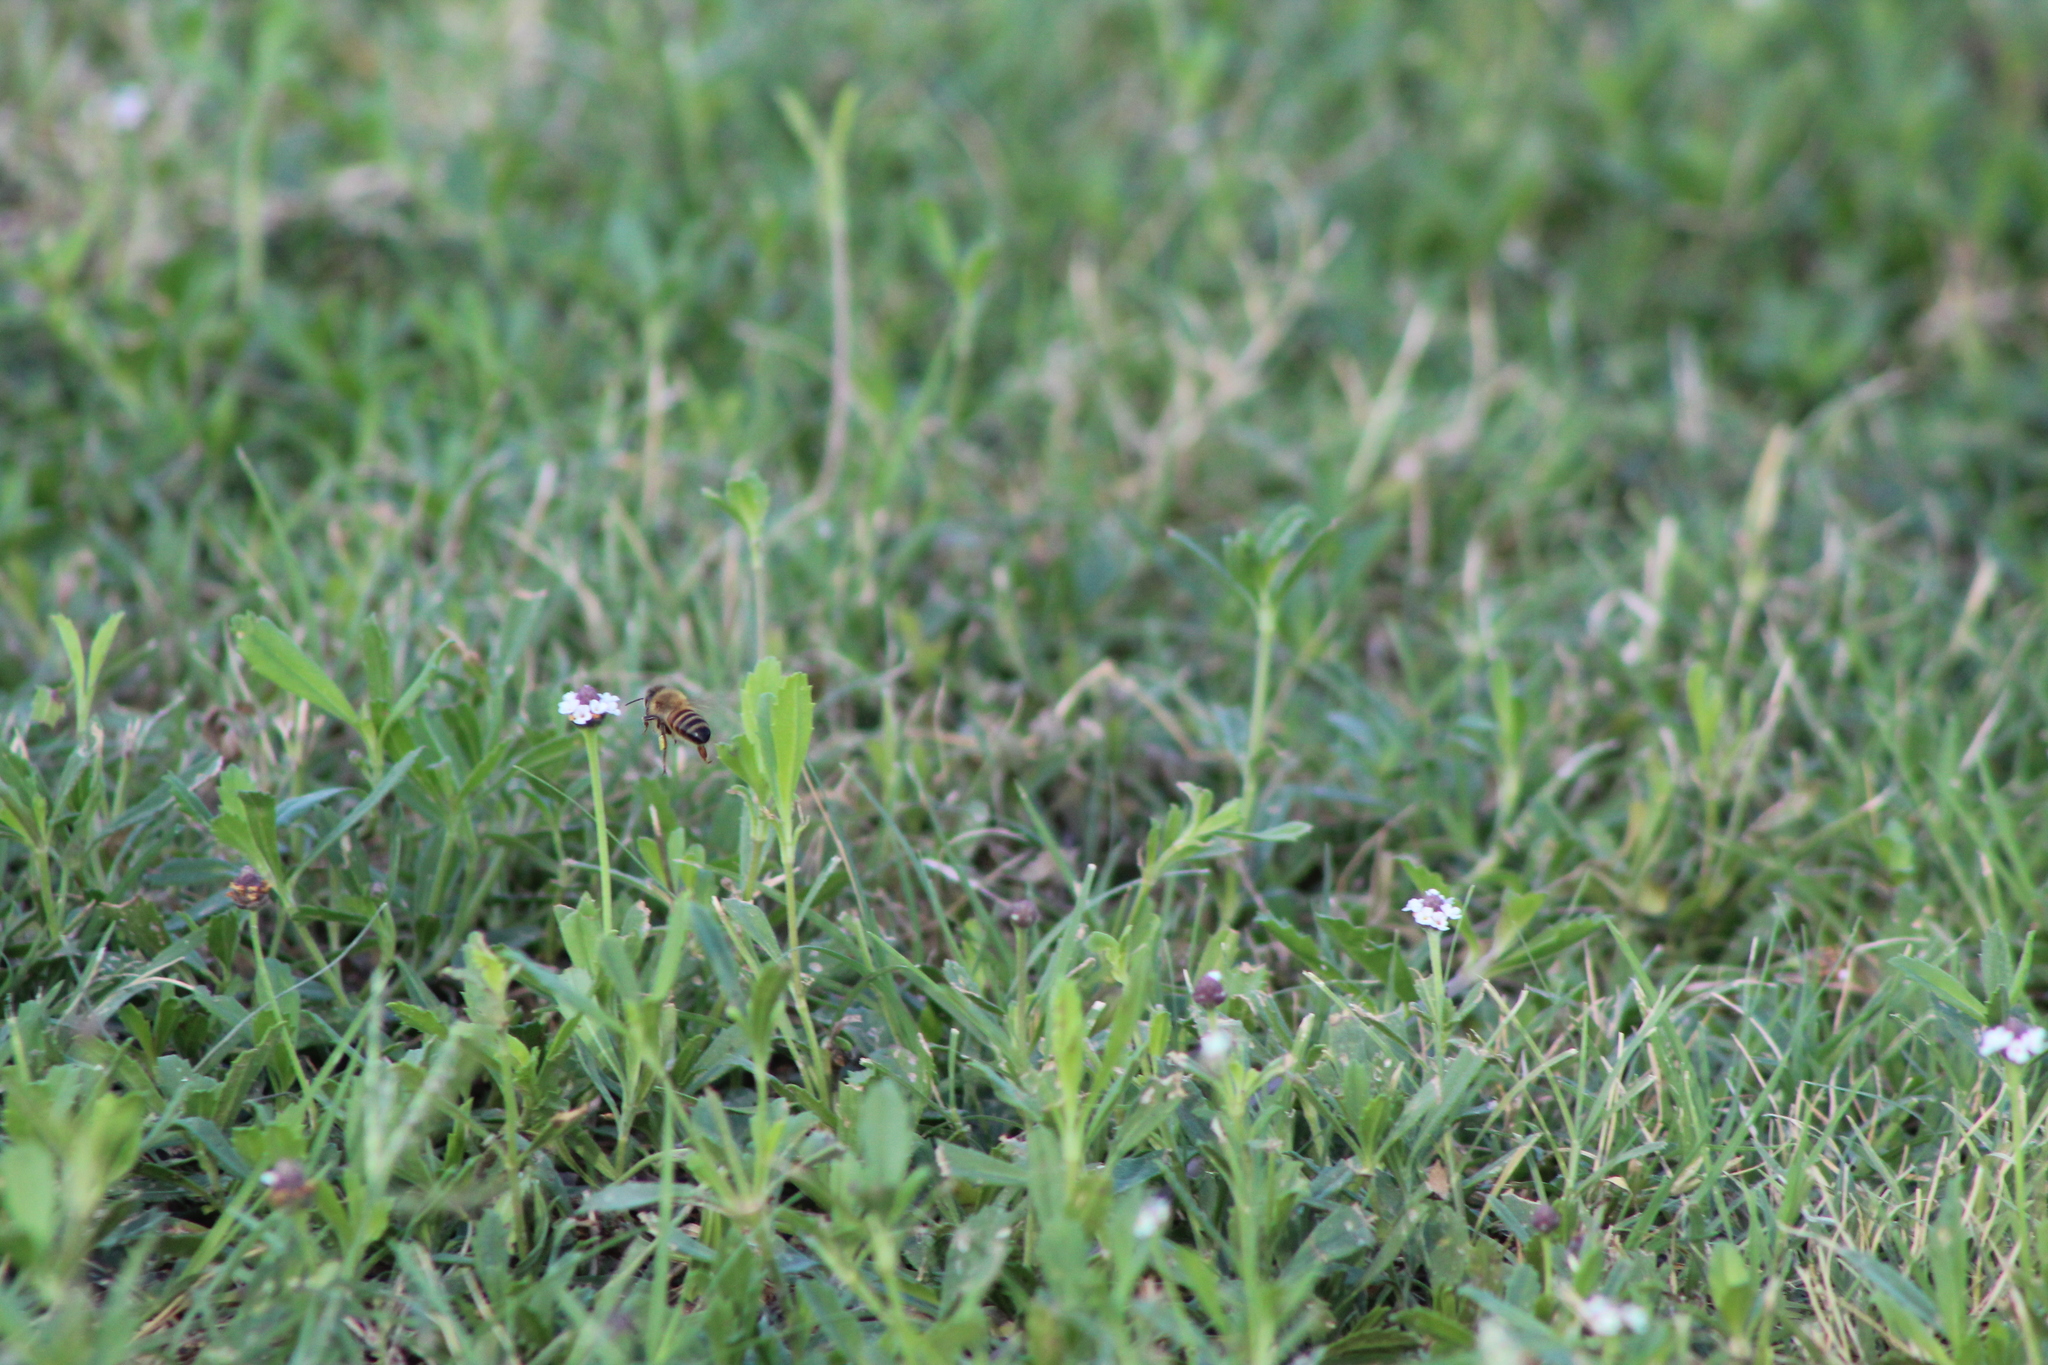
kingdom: Animalia
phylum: Arthropoda
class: Insecta
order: Hymenoptera
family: Apidae
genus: Apis
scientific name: Apis mellifera
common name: Honey bee
